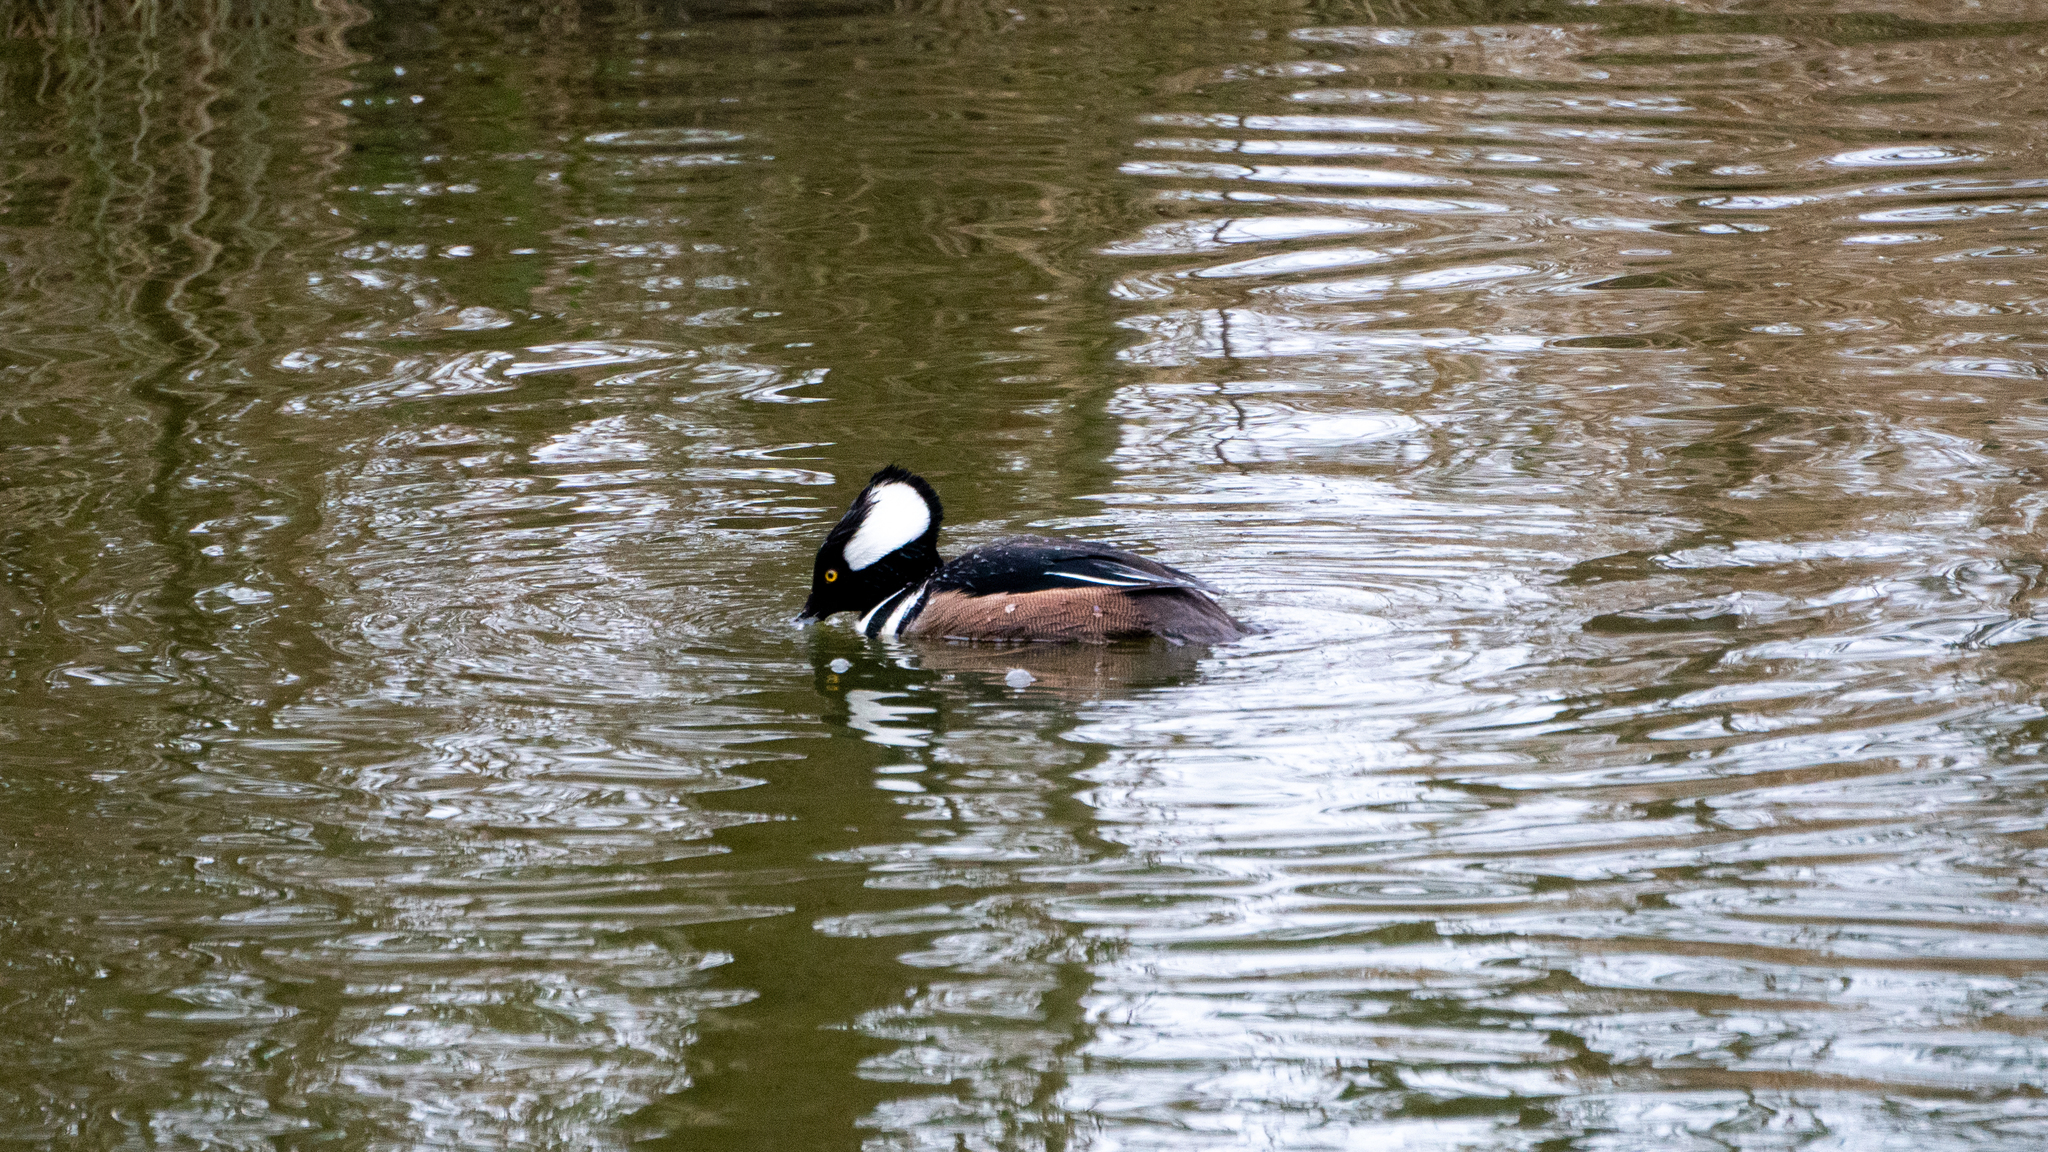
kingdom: Animalia
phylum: Chordata
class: Aves
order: Anseriformes
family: Anatidae
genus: Lophodytes
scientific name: Lophodytes cucullatus
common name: Hooded merganser
